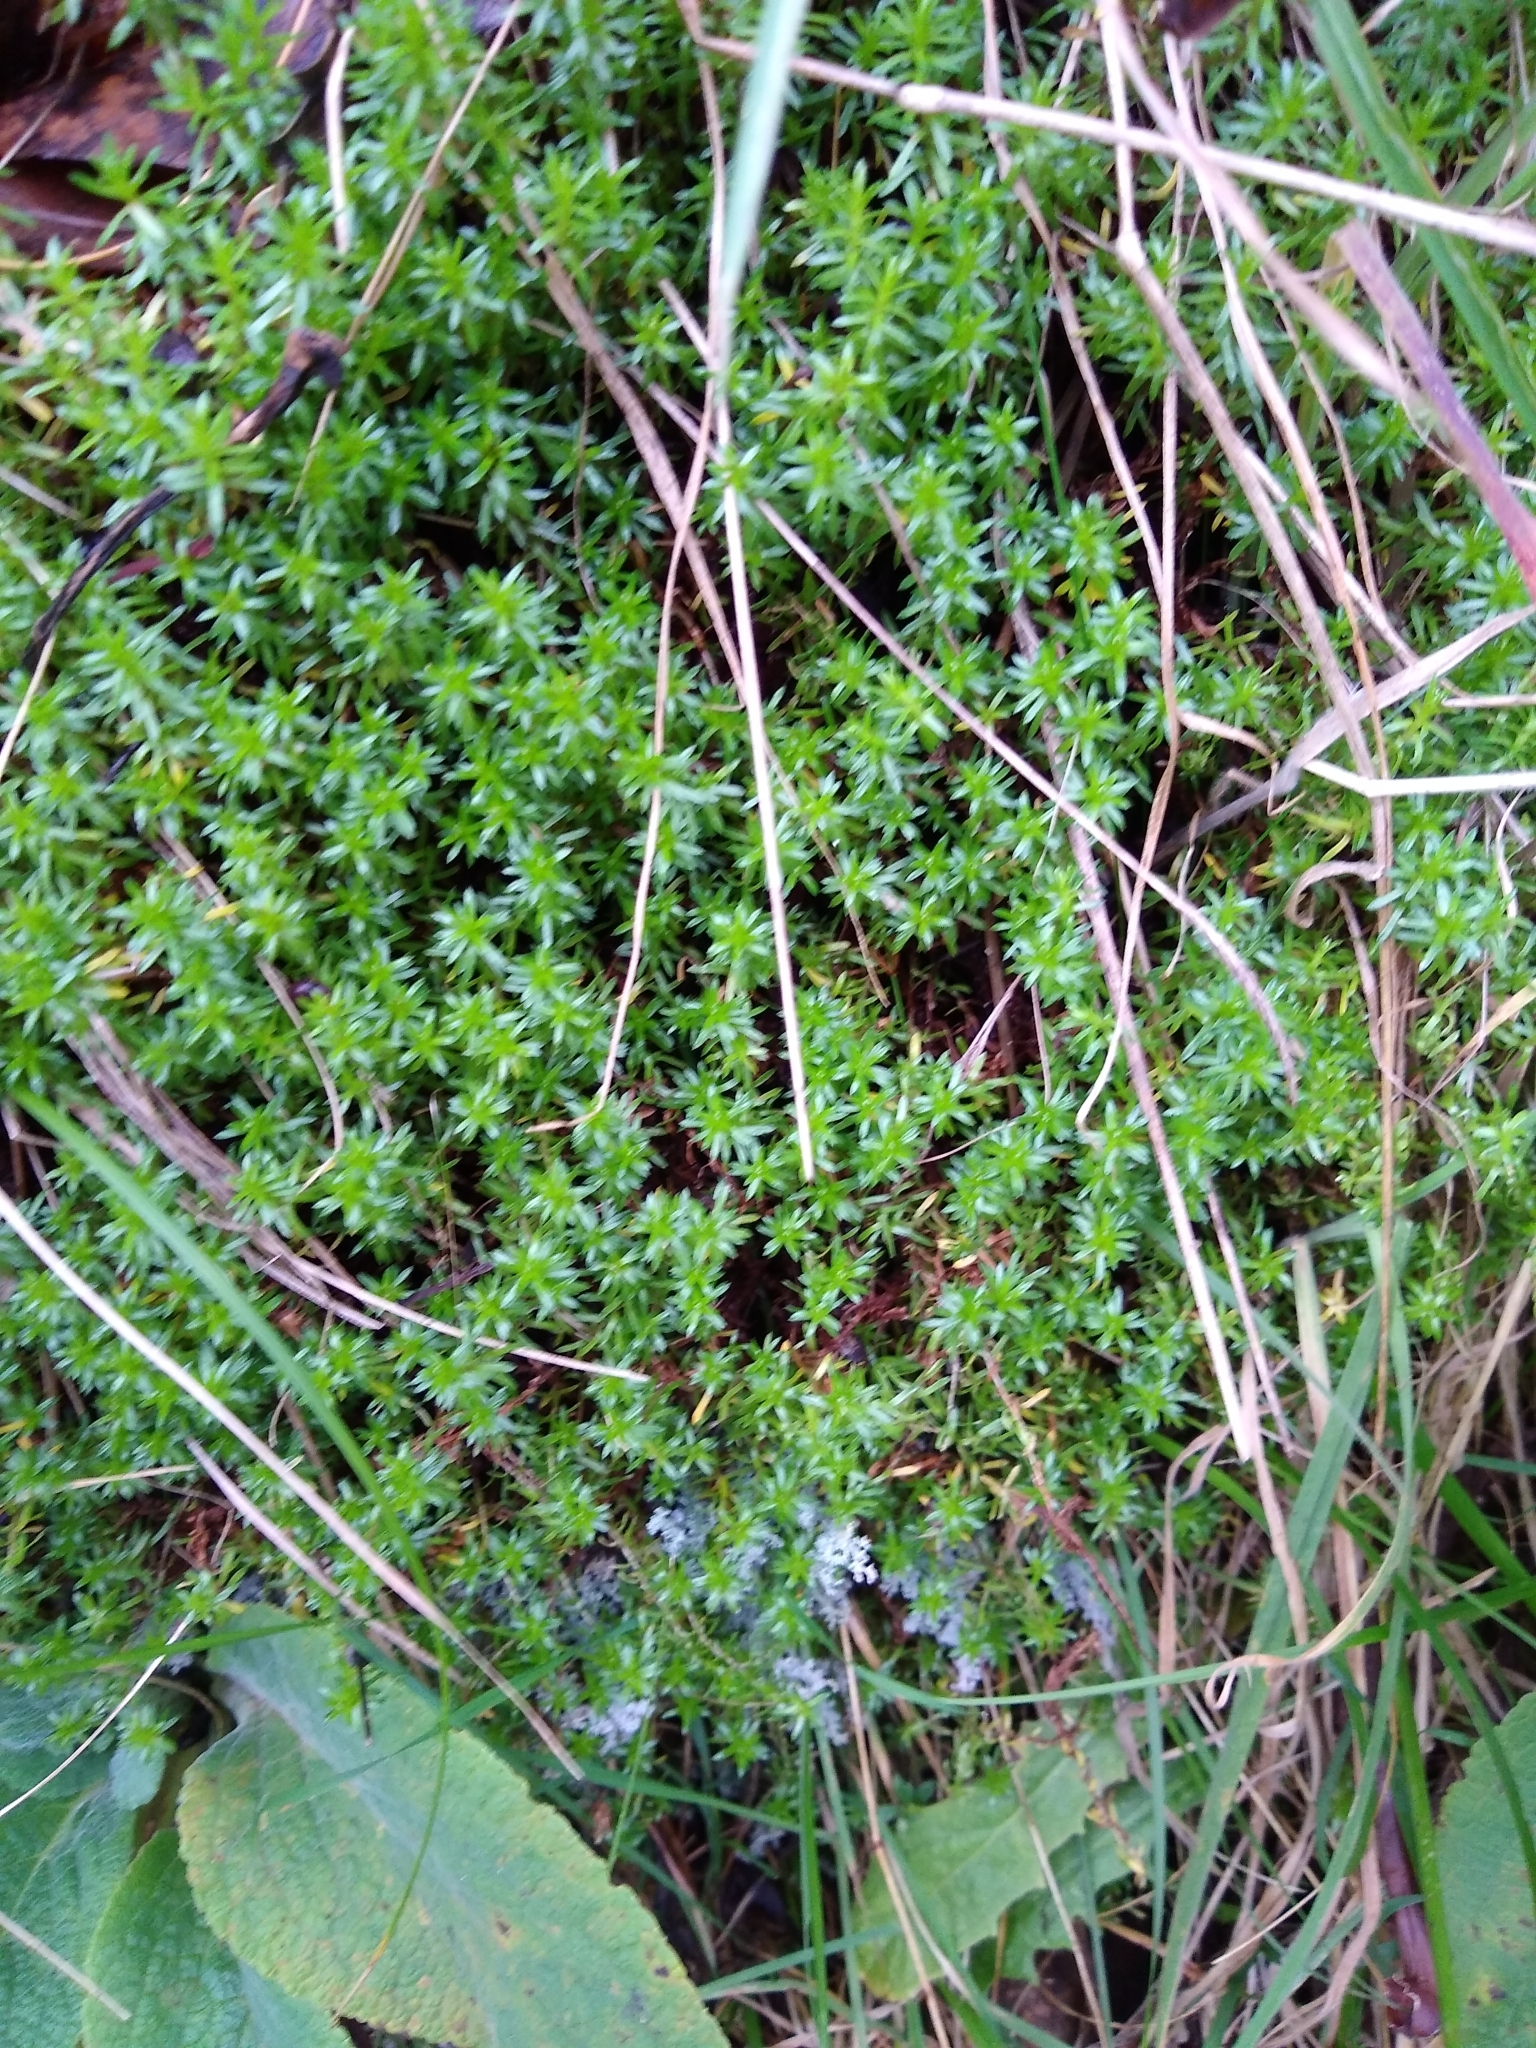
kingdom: Plantae
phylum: Tracheophyta
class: Magnoliopsida
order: Asterales
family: Asteraceae
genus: Raoulia
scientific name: Raoulia glabra
